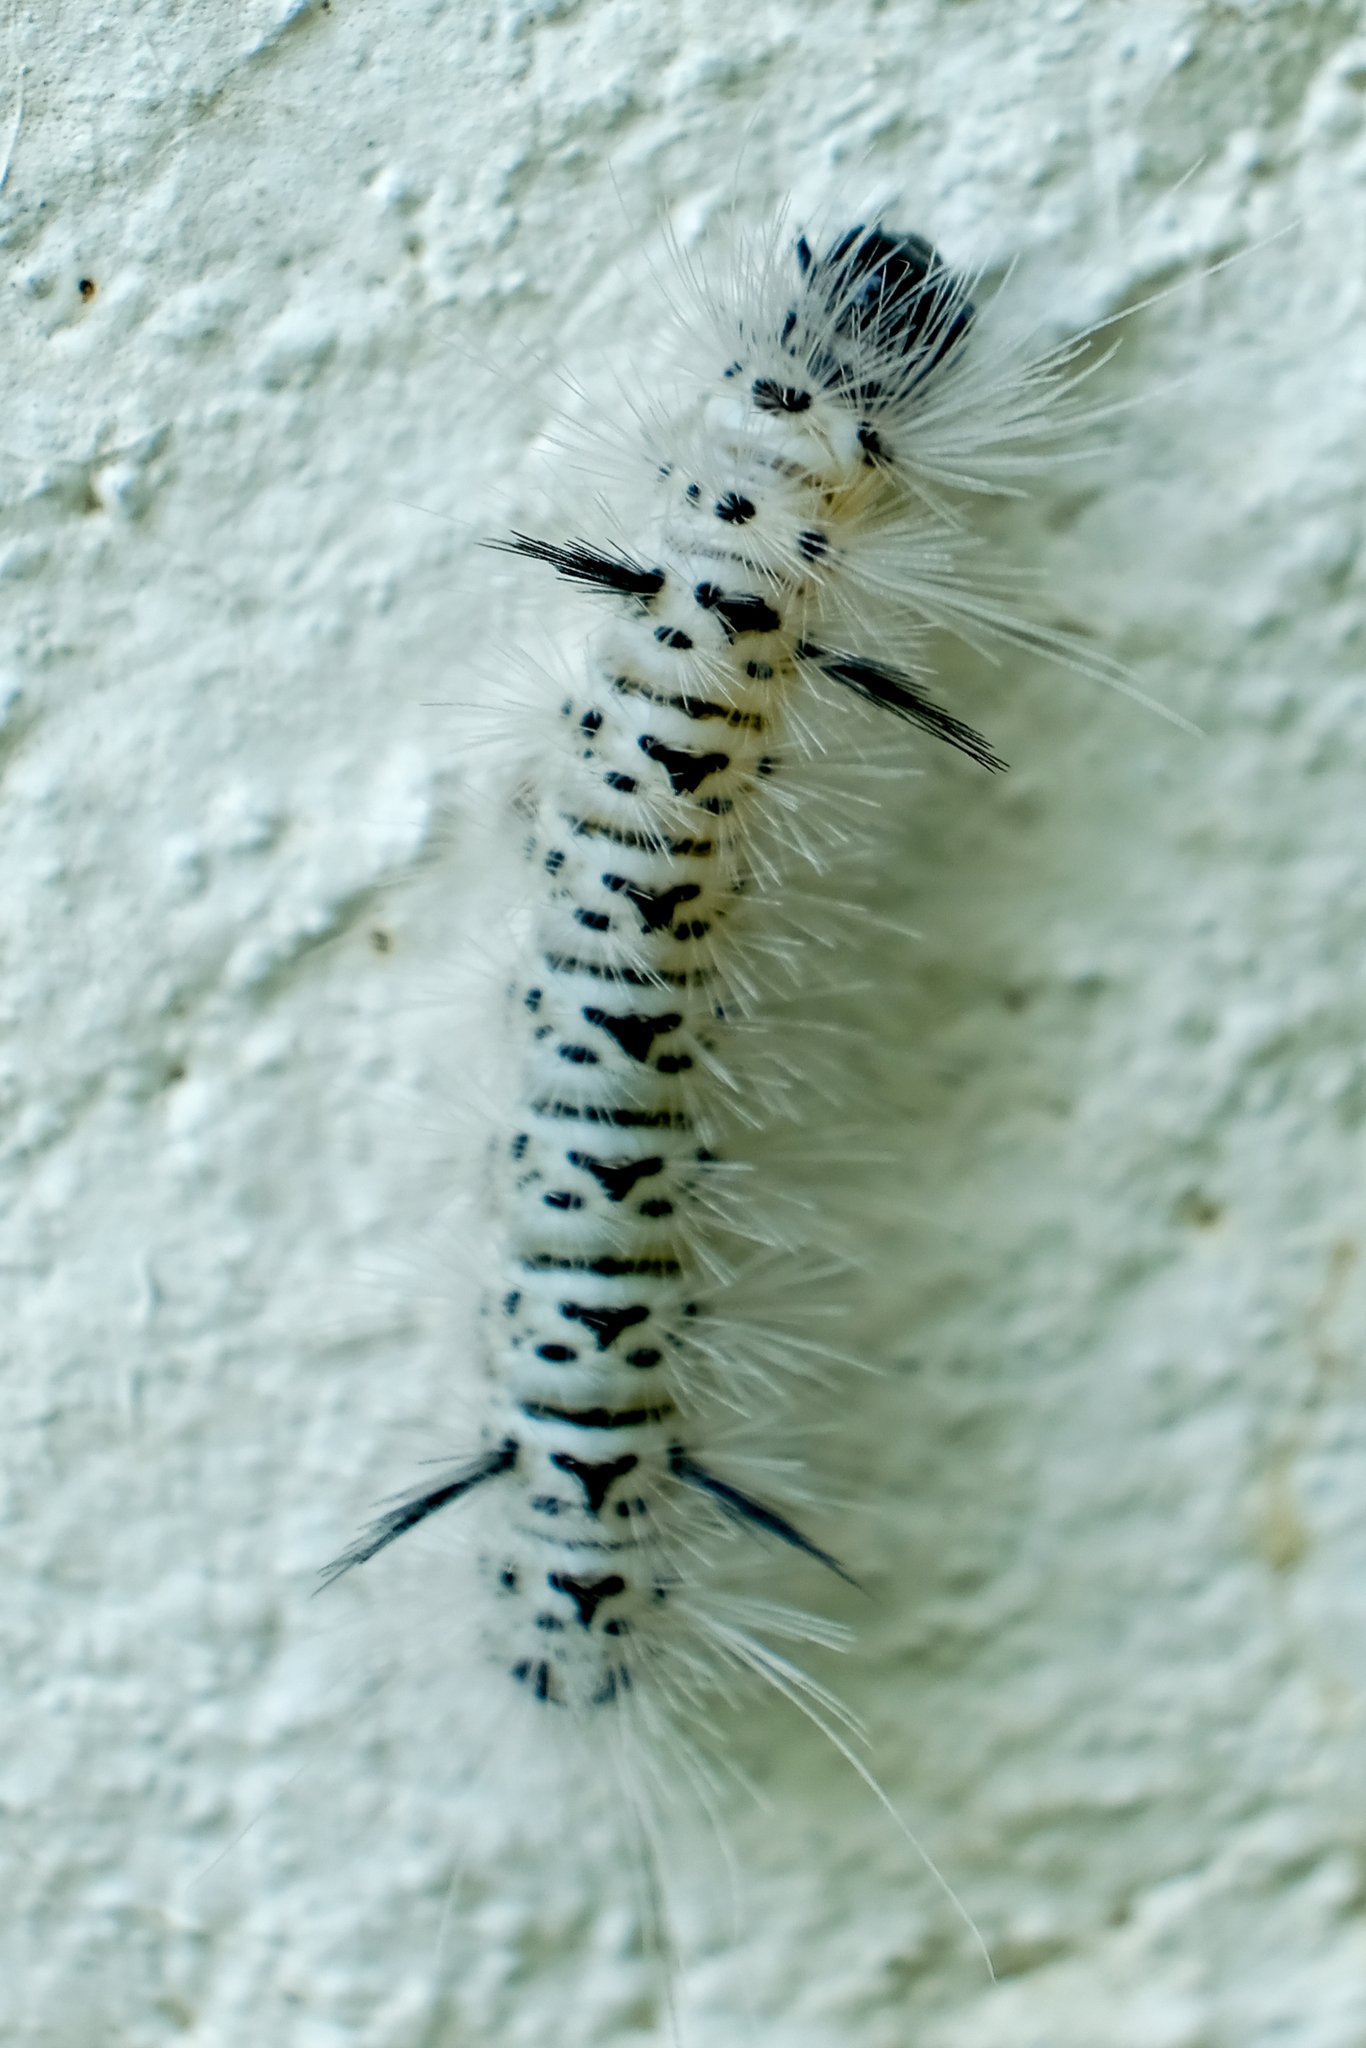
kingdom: Animalia
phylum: Arthropoda
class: Insecta
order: Lepidoptera
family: Erebidae
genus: Lophocampa
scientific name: Lophocampa caryae
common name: Hickory tussock moth
